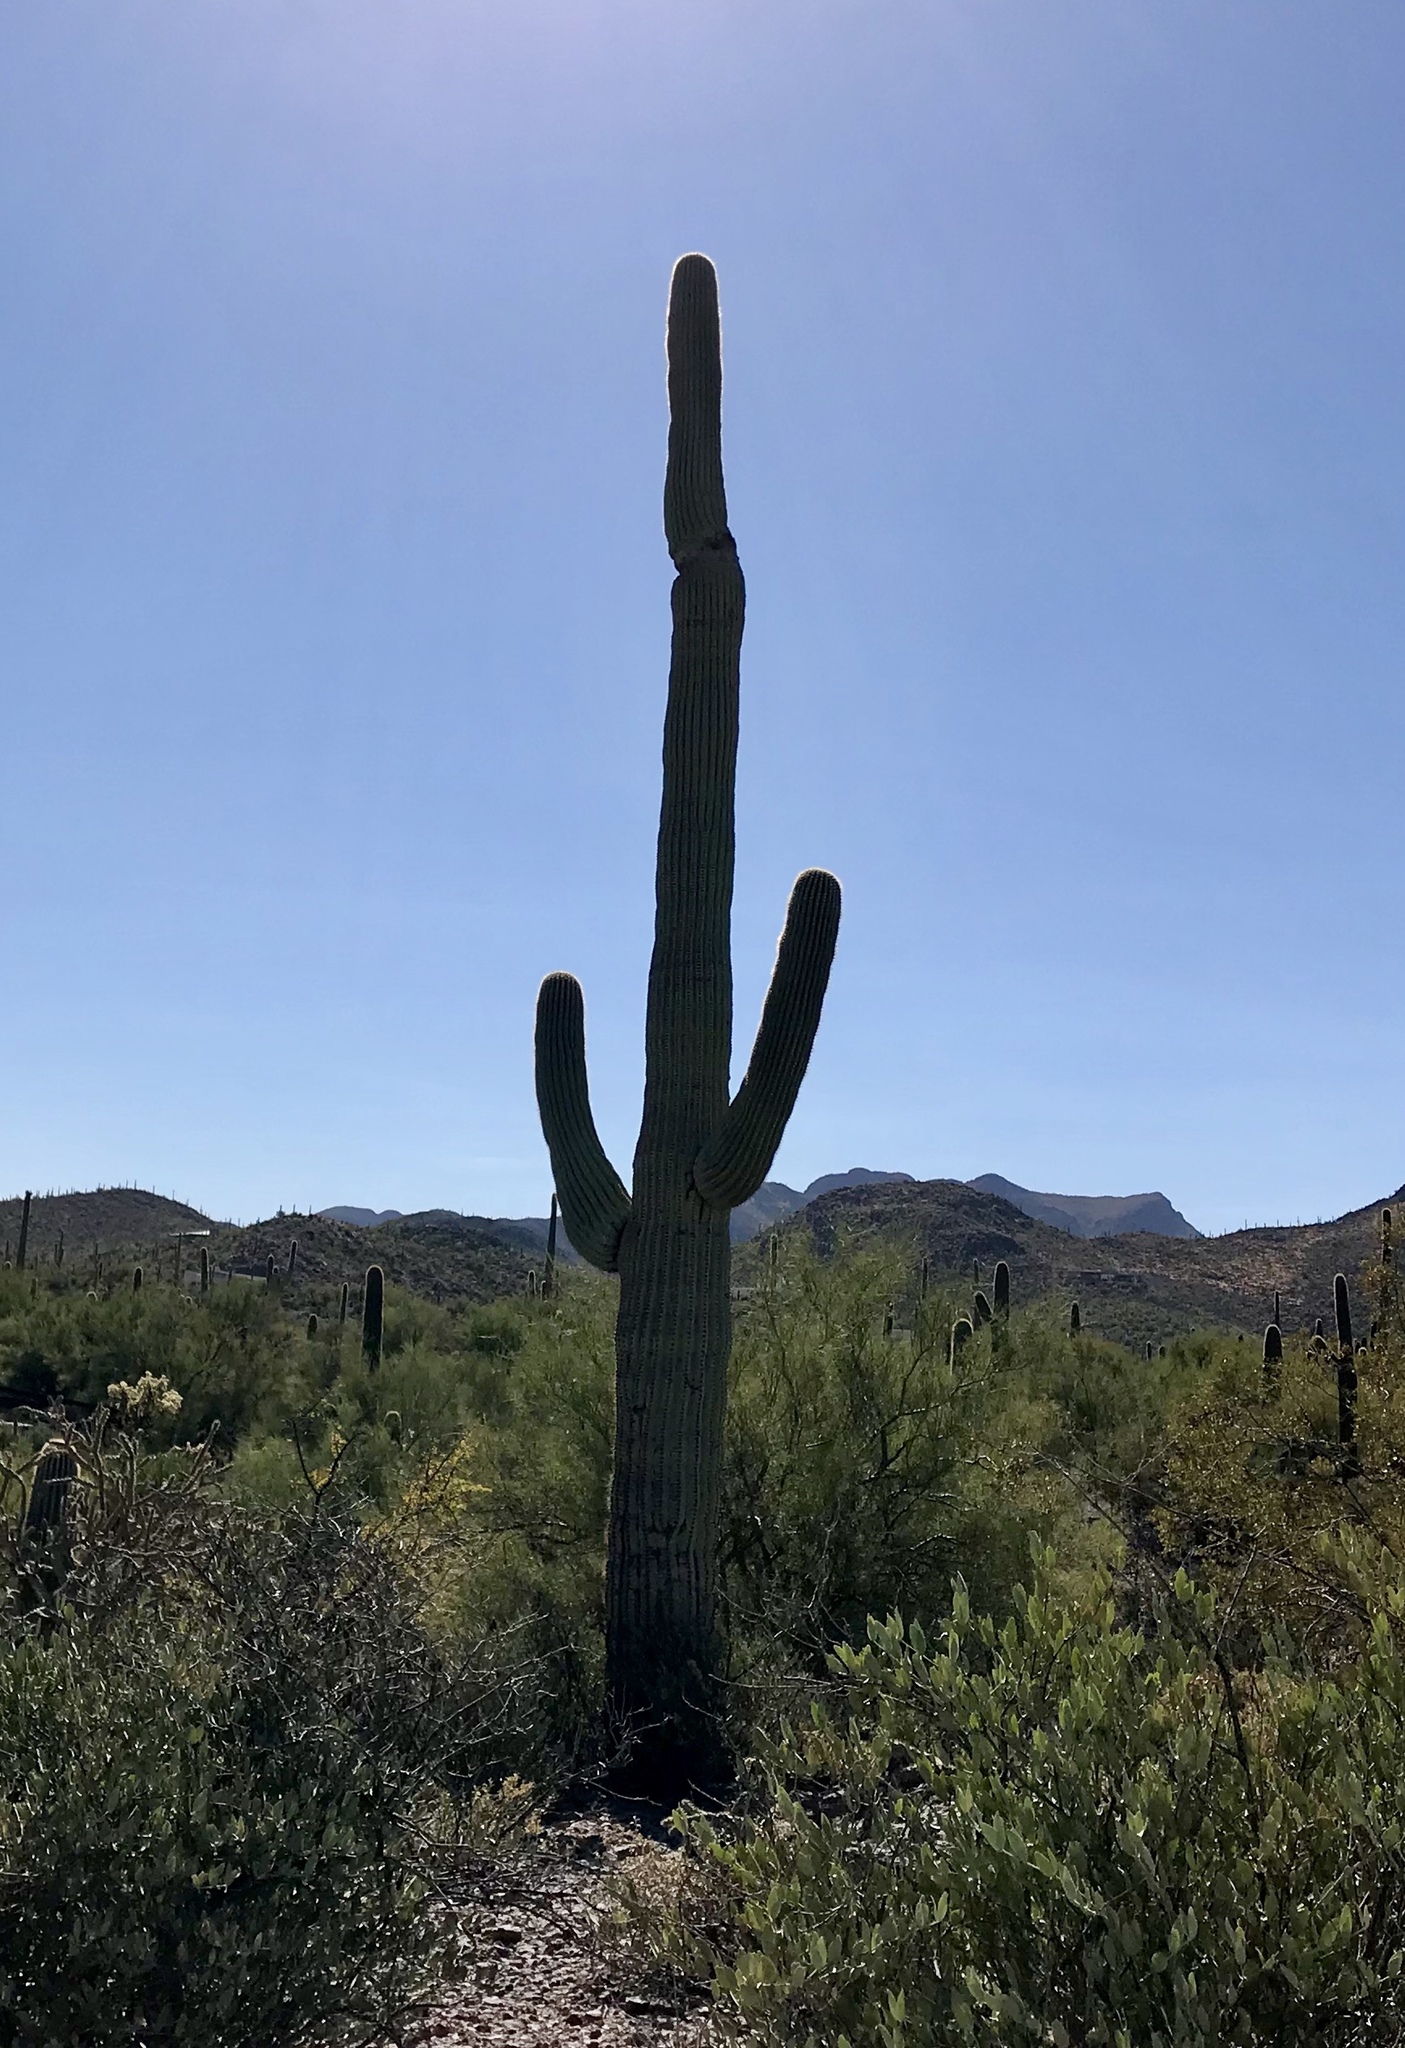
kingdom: Plantae
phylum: Tracheophyta
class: Magnoliopsida
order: Caryophyllales
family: Cactaceae
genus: Carnegiea
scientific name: Carnegiea gigantea
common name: Saguaro
